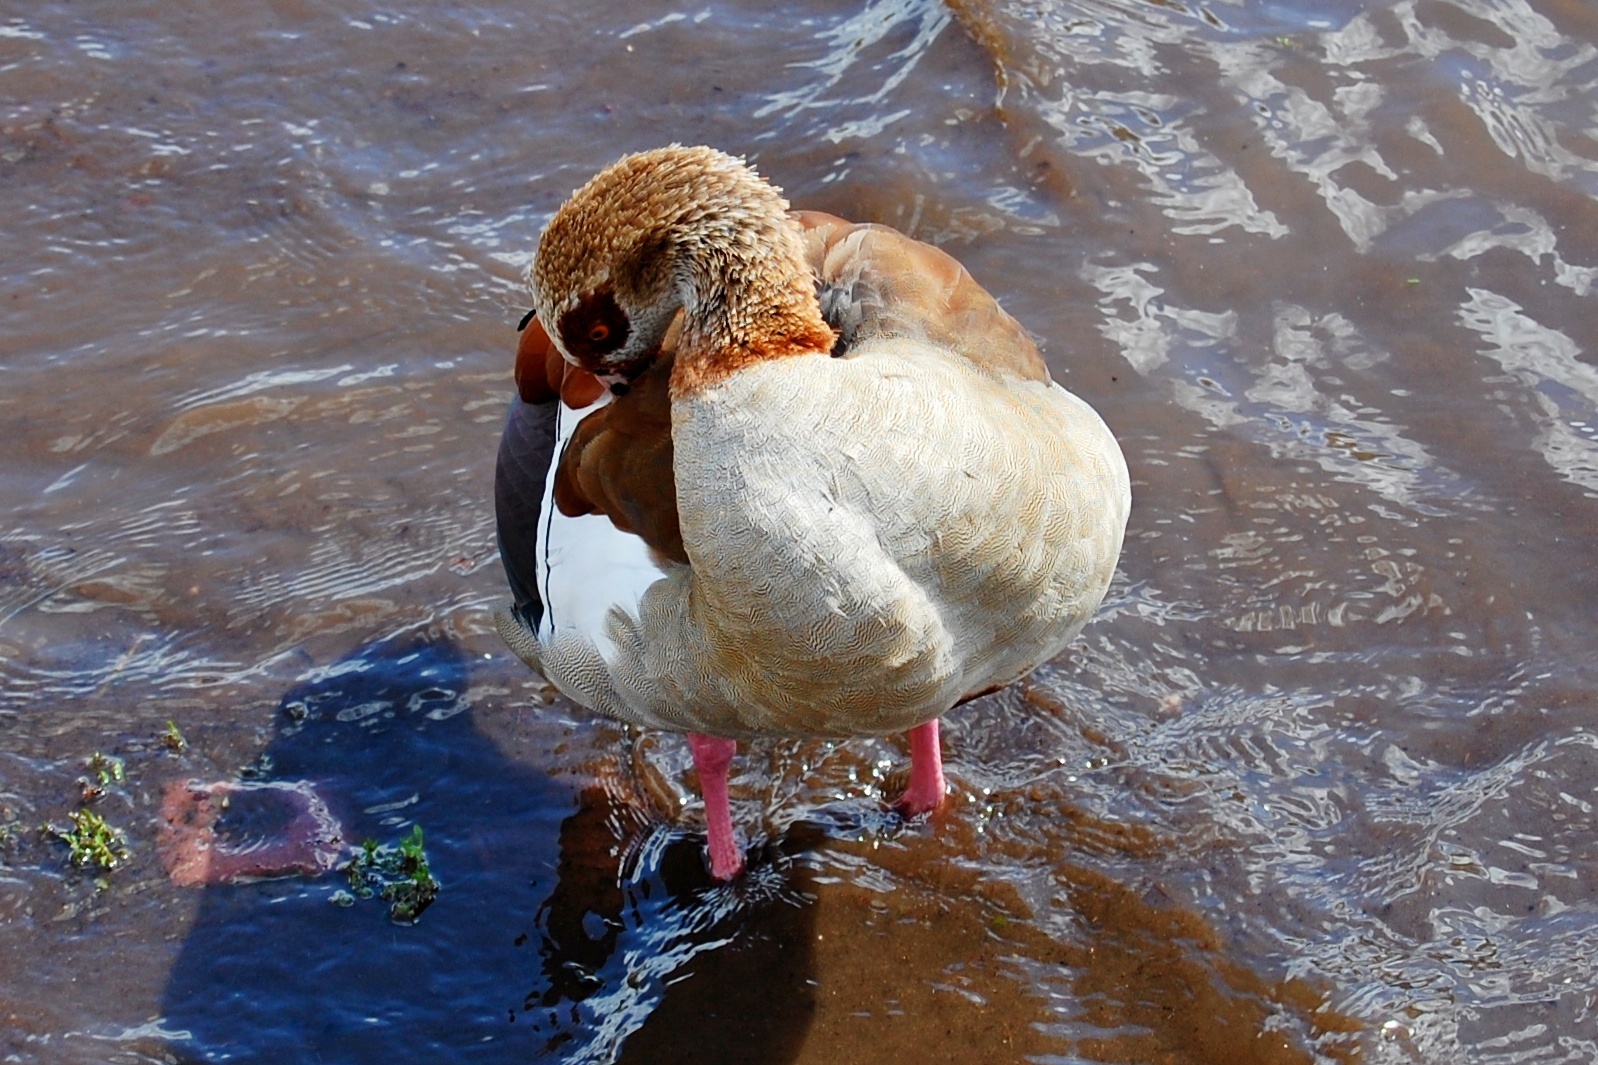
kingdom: Animalia
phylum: Chordata
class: Aves
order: Anseriformes
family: Anatidae
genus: Alopochen
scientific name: Alopochen aegyptiaca
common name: Egyptian goose
